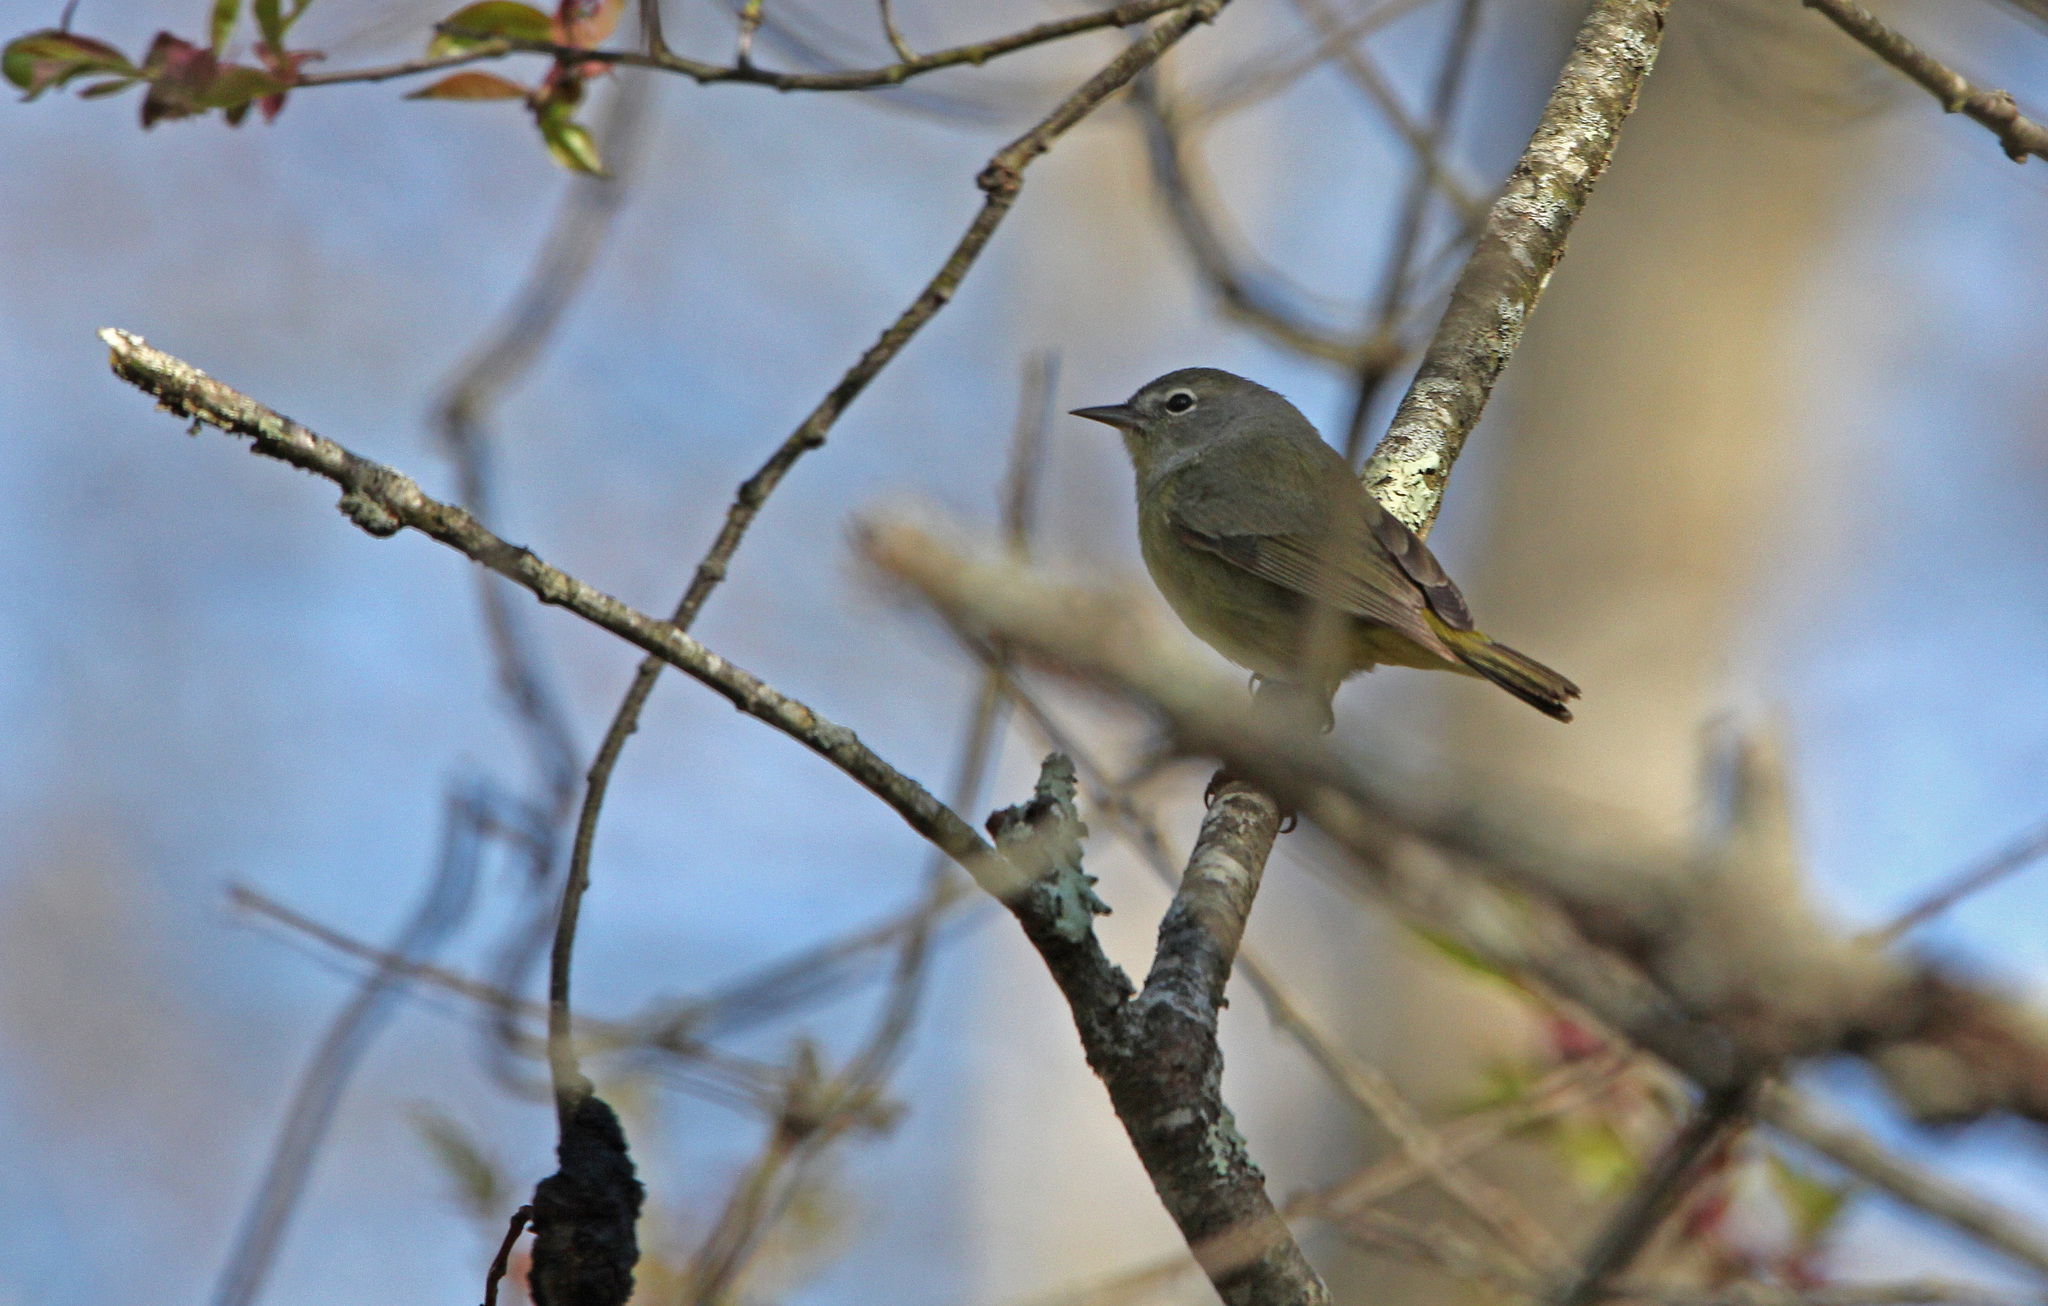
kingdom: Animalia
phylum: Chordata
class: Aves
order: Passeriformes
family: Parulidae
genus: Leiothlypis
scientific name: Leiothlypis celata
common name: Orange-crowned warbler
